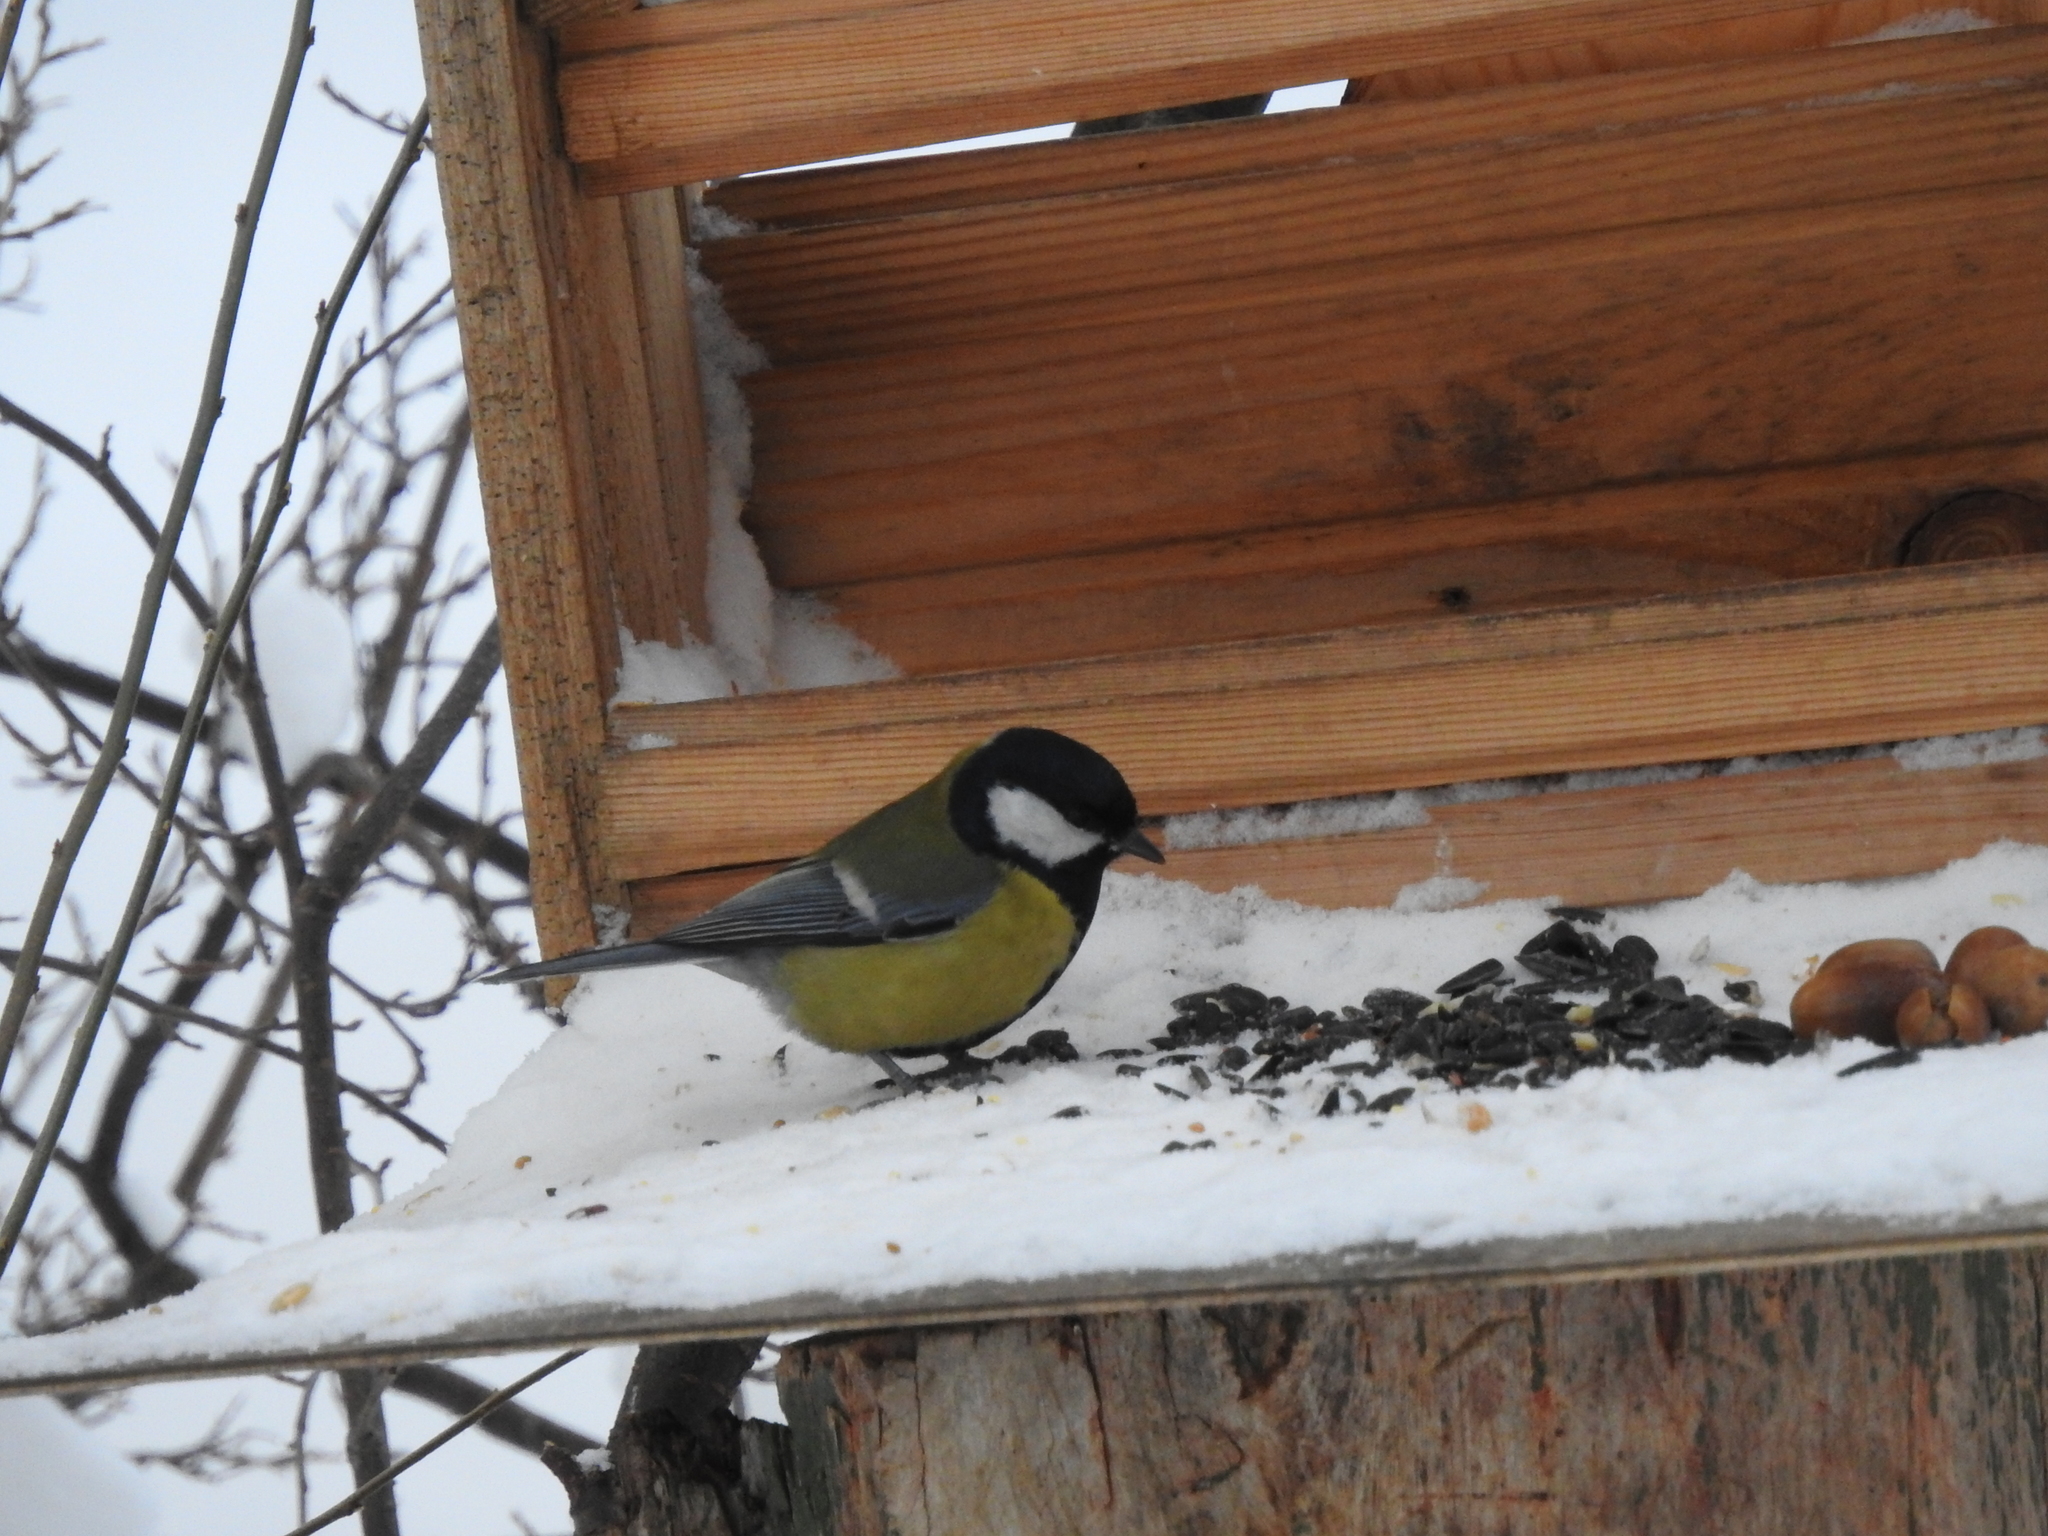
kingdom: Animalia
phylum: Chordata
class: Aves
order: Passeriformes
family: Paridae
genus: Parus
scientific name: Parus major
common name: Great tit
